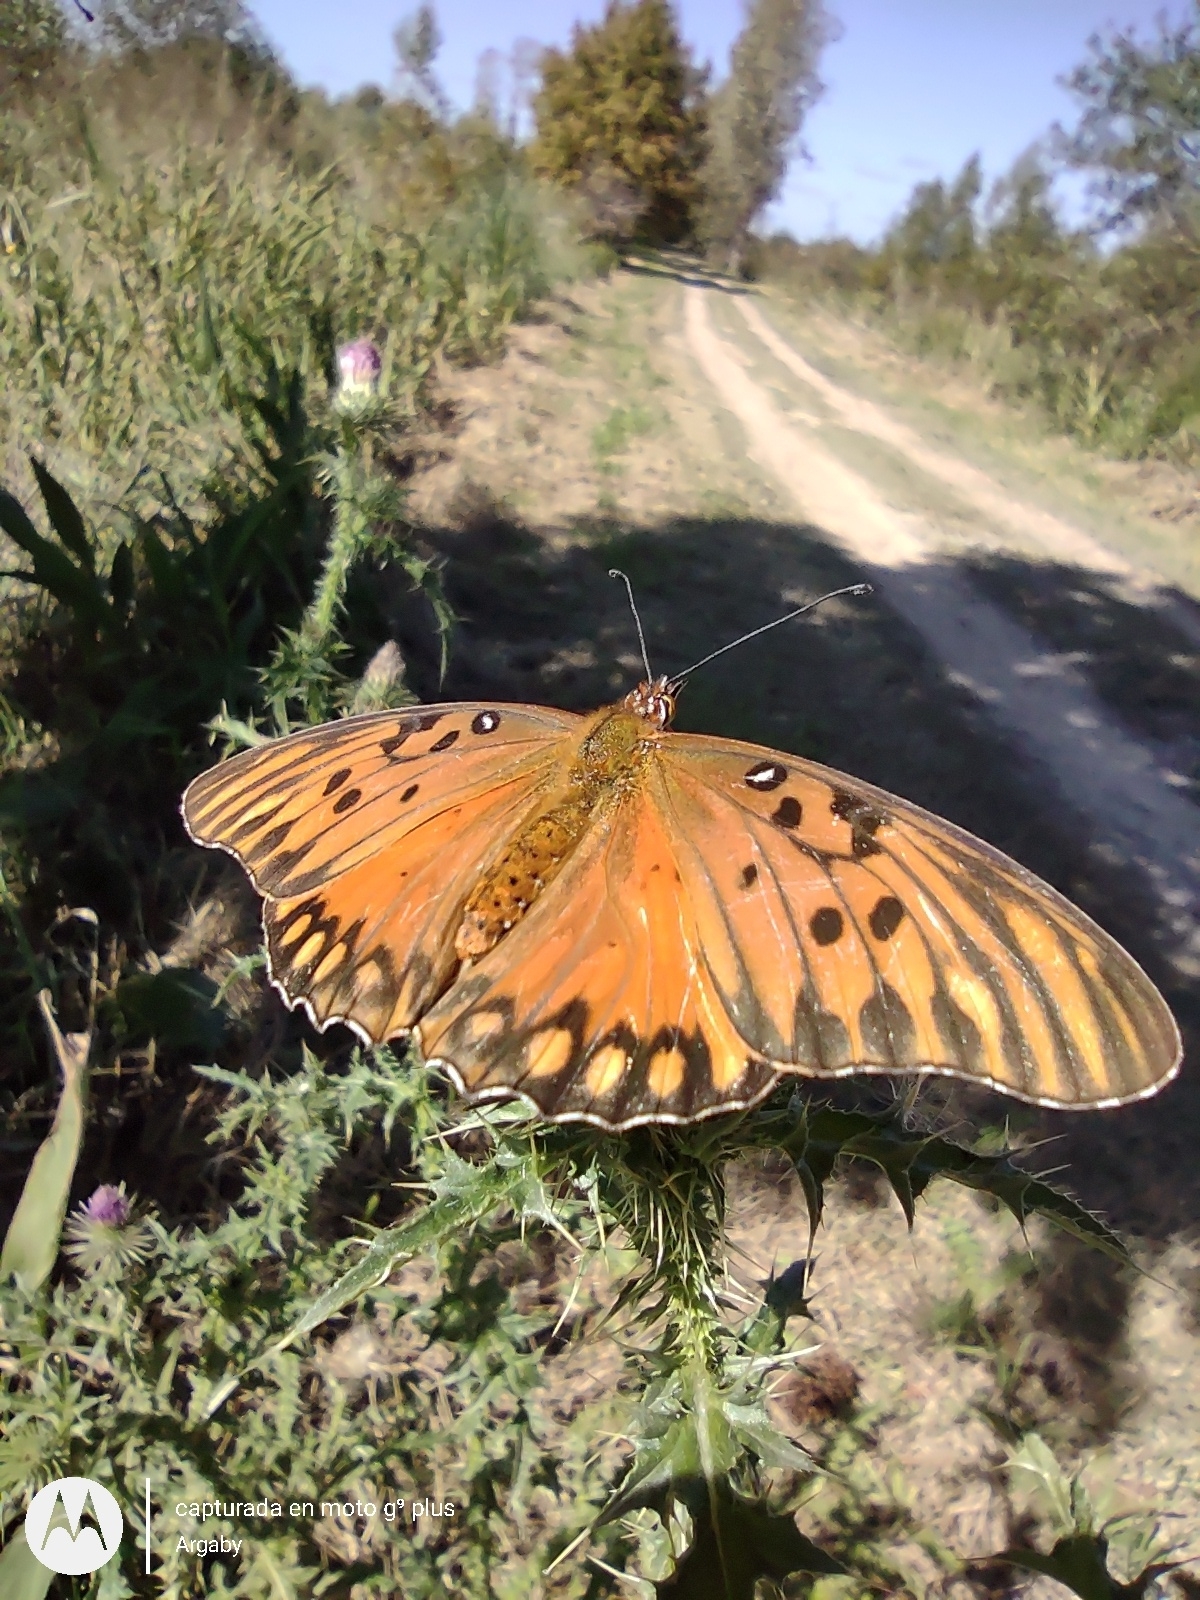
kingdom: Animalia
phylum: Arthropoda
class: Insecta
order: Lepidoptera
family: Nymphalidae
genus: Dione
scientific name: Dione vanillae
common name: Gulf fritillary
